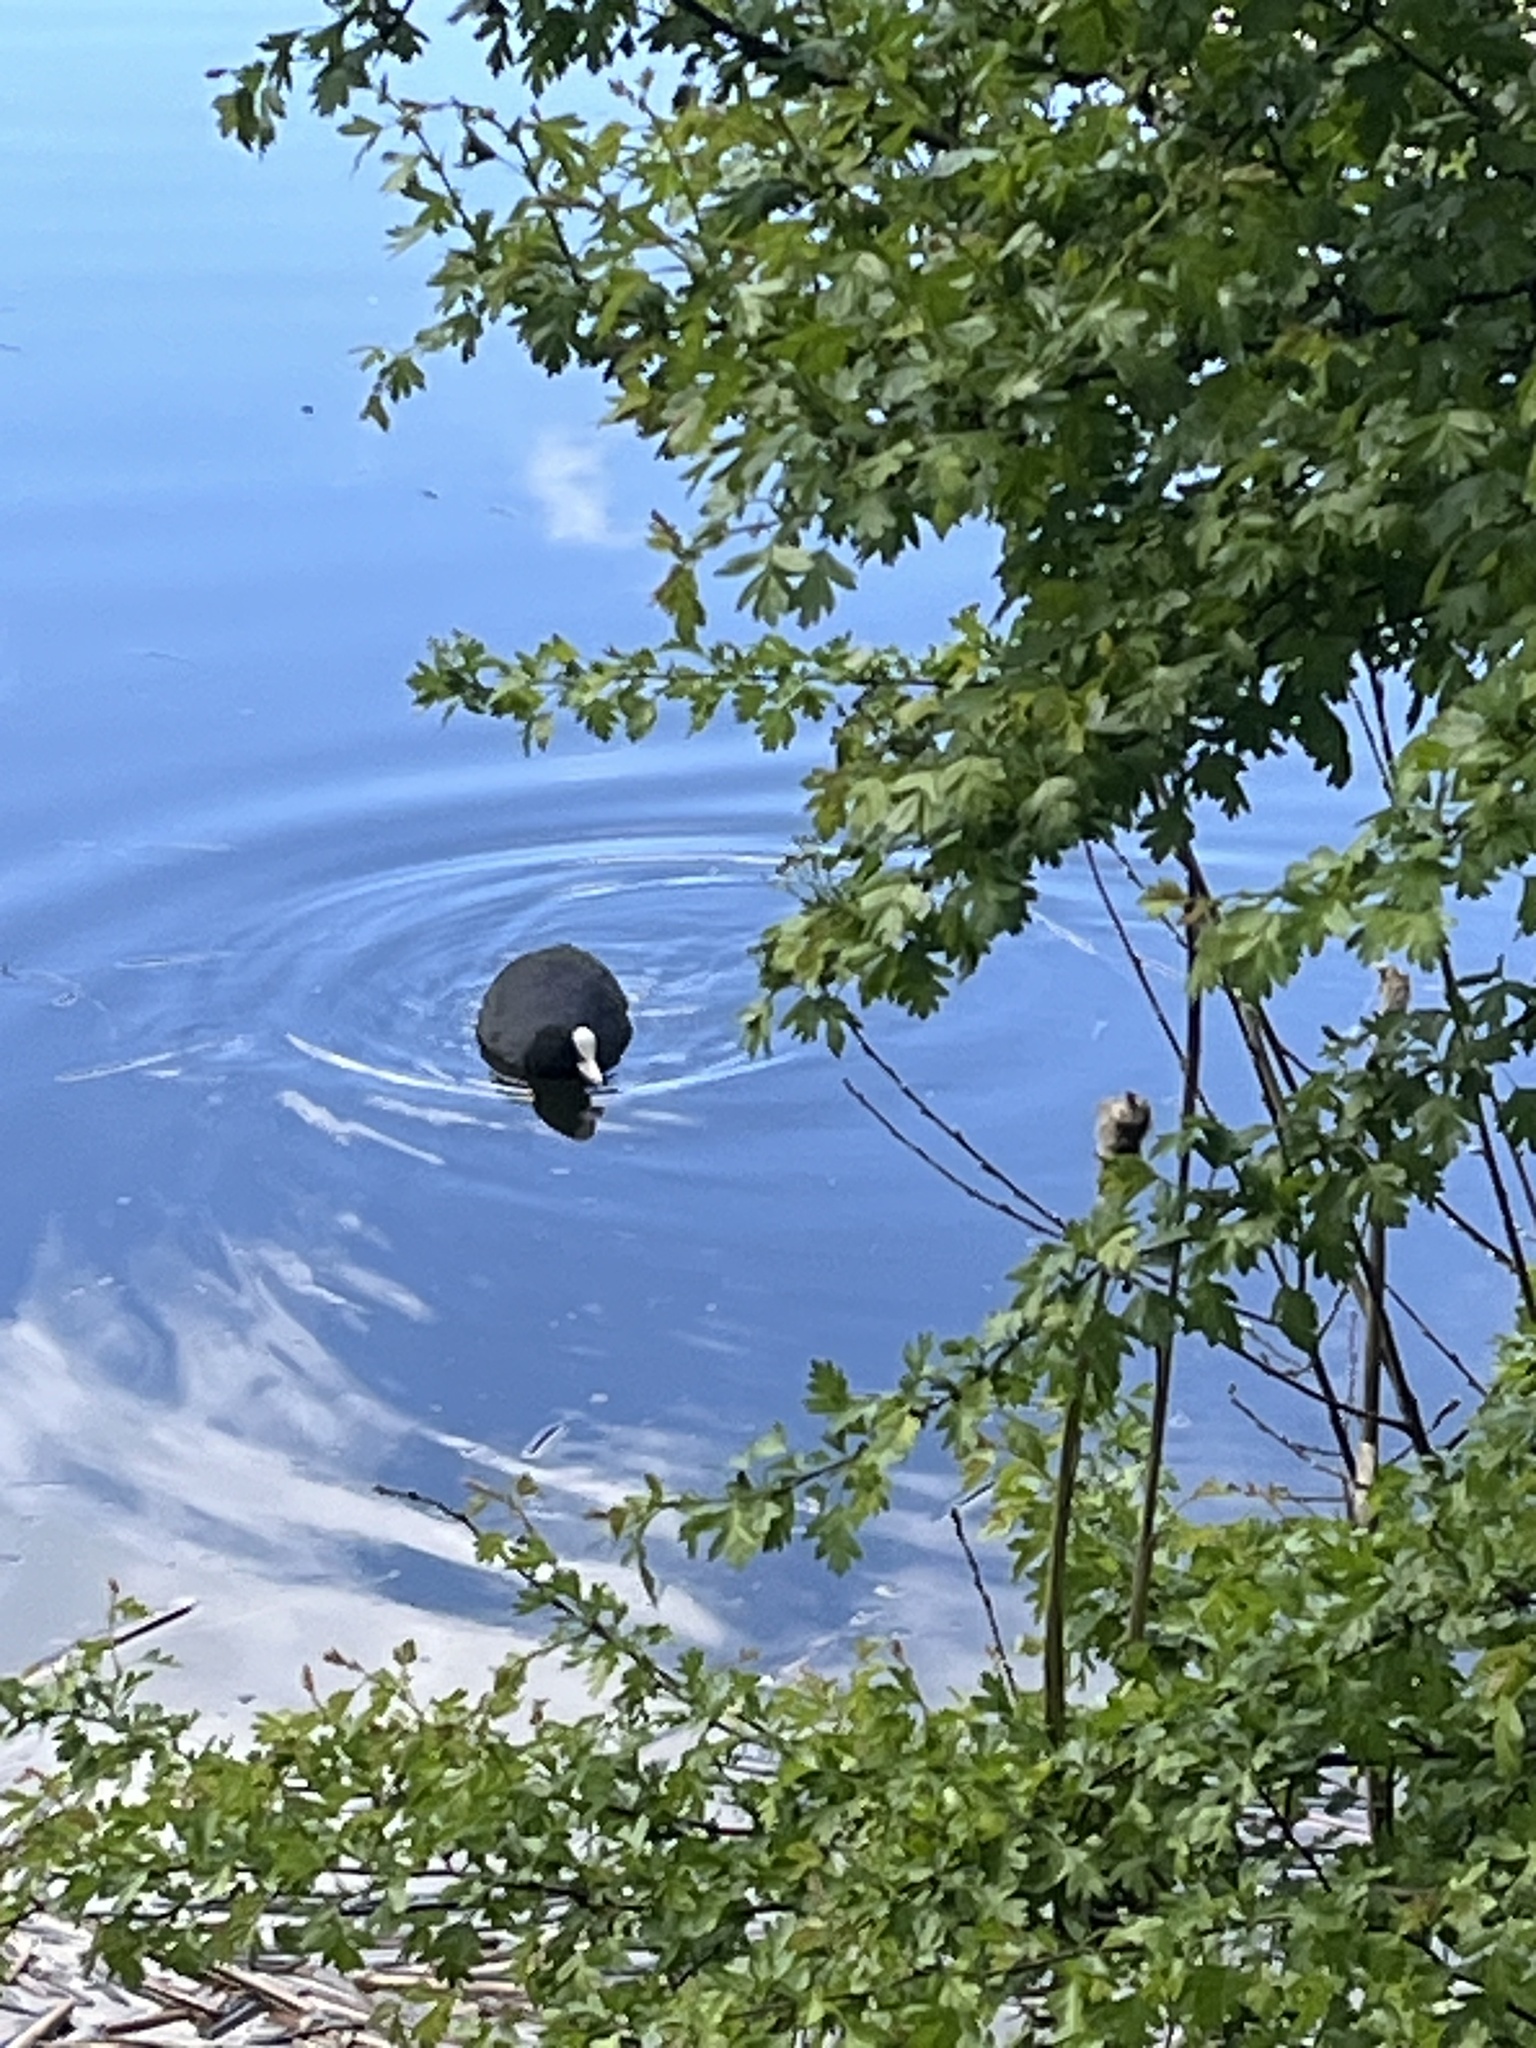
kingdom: Animalia
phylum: Chordata
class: Aves
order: Gruiformes
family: Rallidae
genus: Fulica
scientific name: Fulica atra
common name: Eurasian coot
